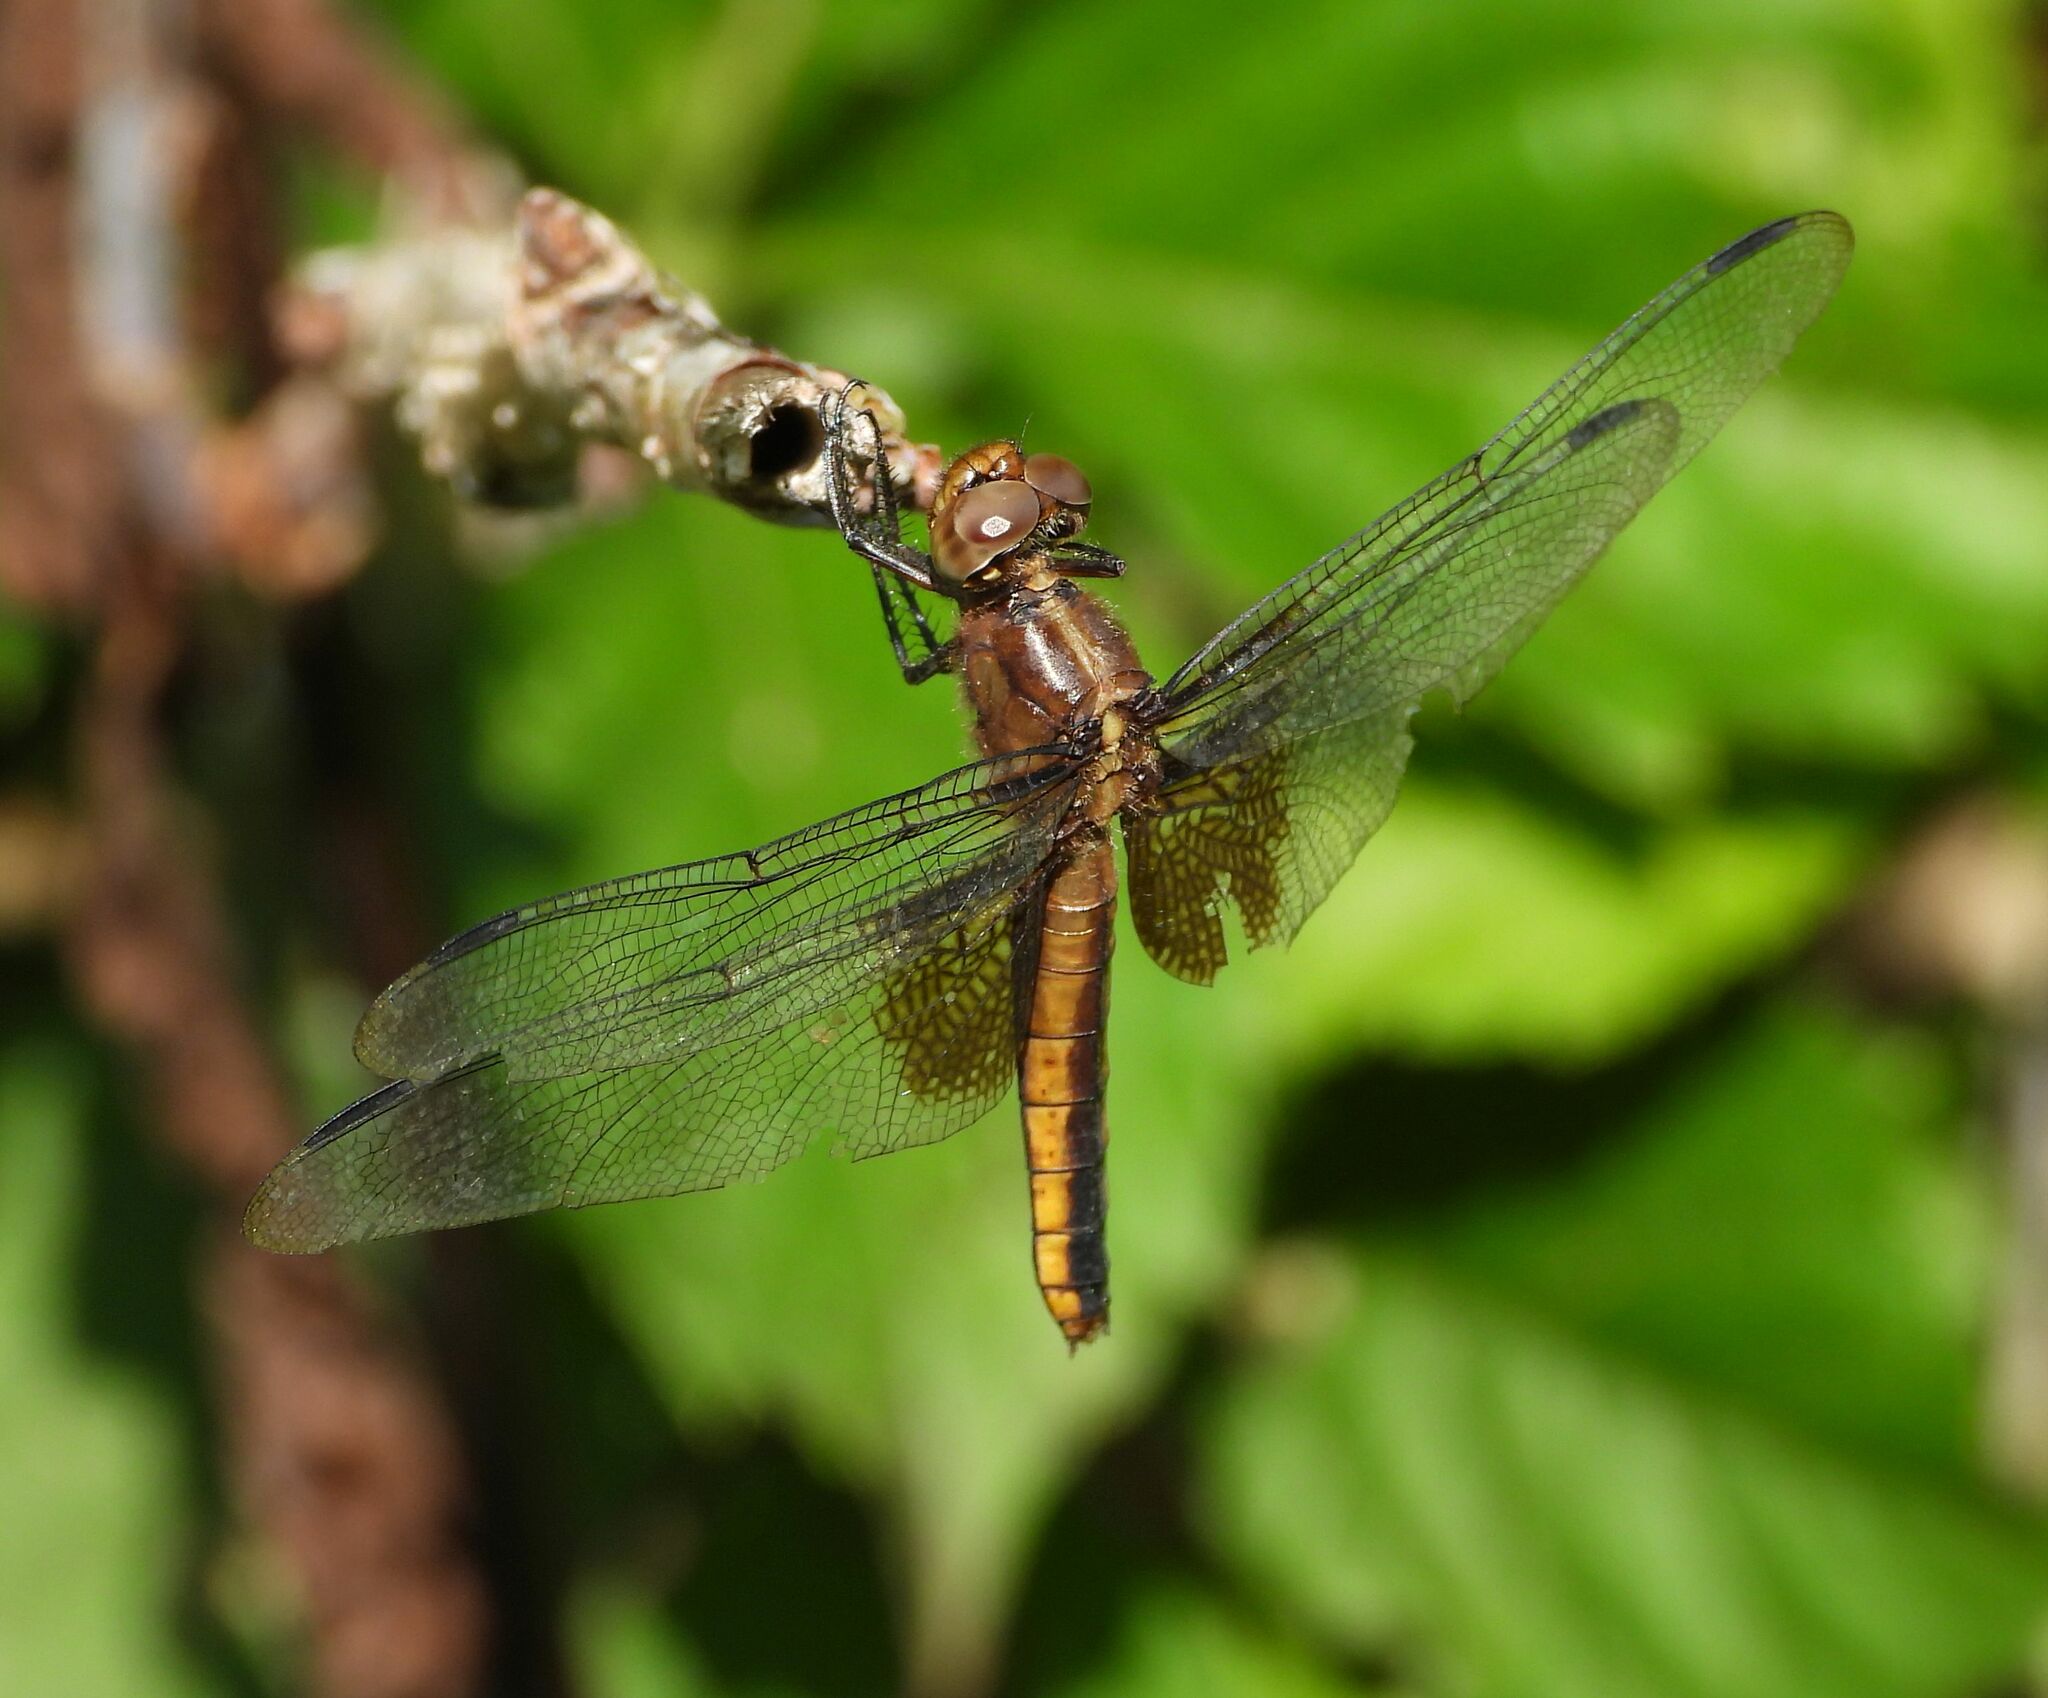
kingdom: Animalia
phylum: Arthropoda
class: Insecta
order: Odonata
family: Libellulidae
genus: Libellula
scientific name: Libellula luctuosa
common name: Widow skimmer
